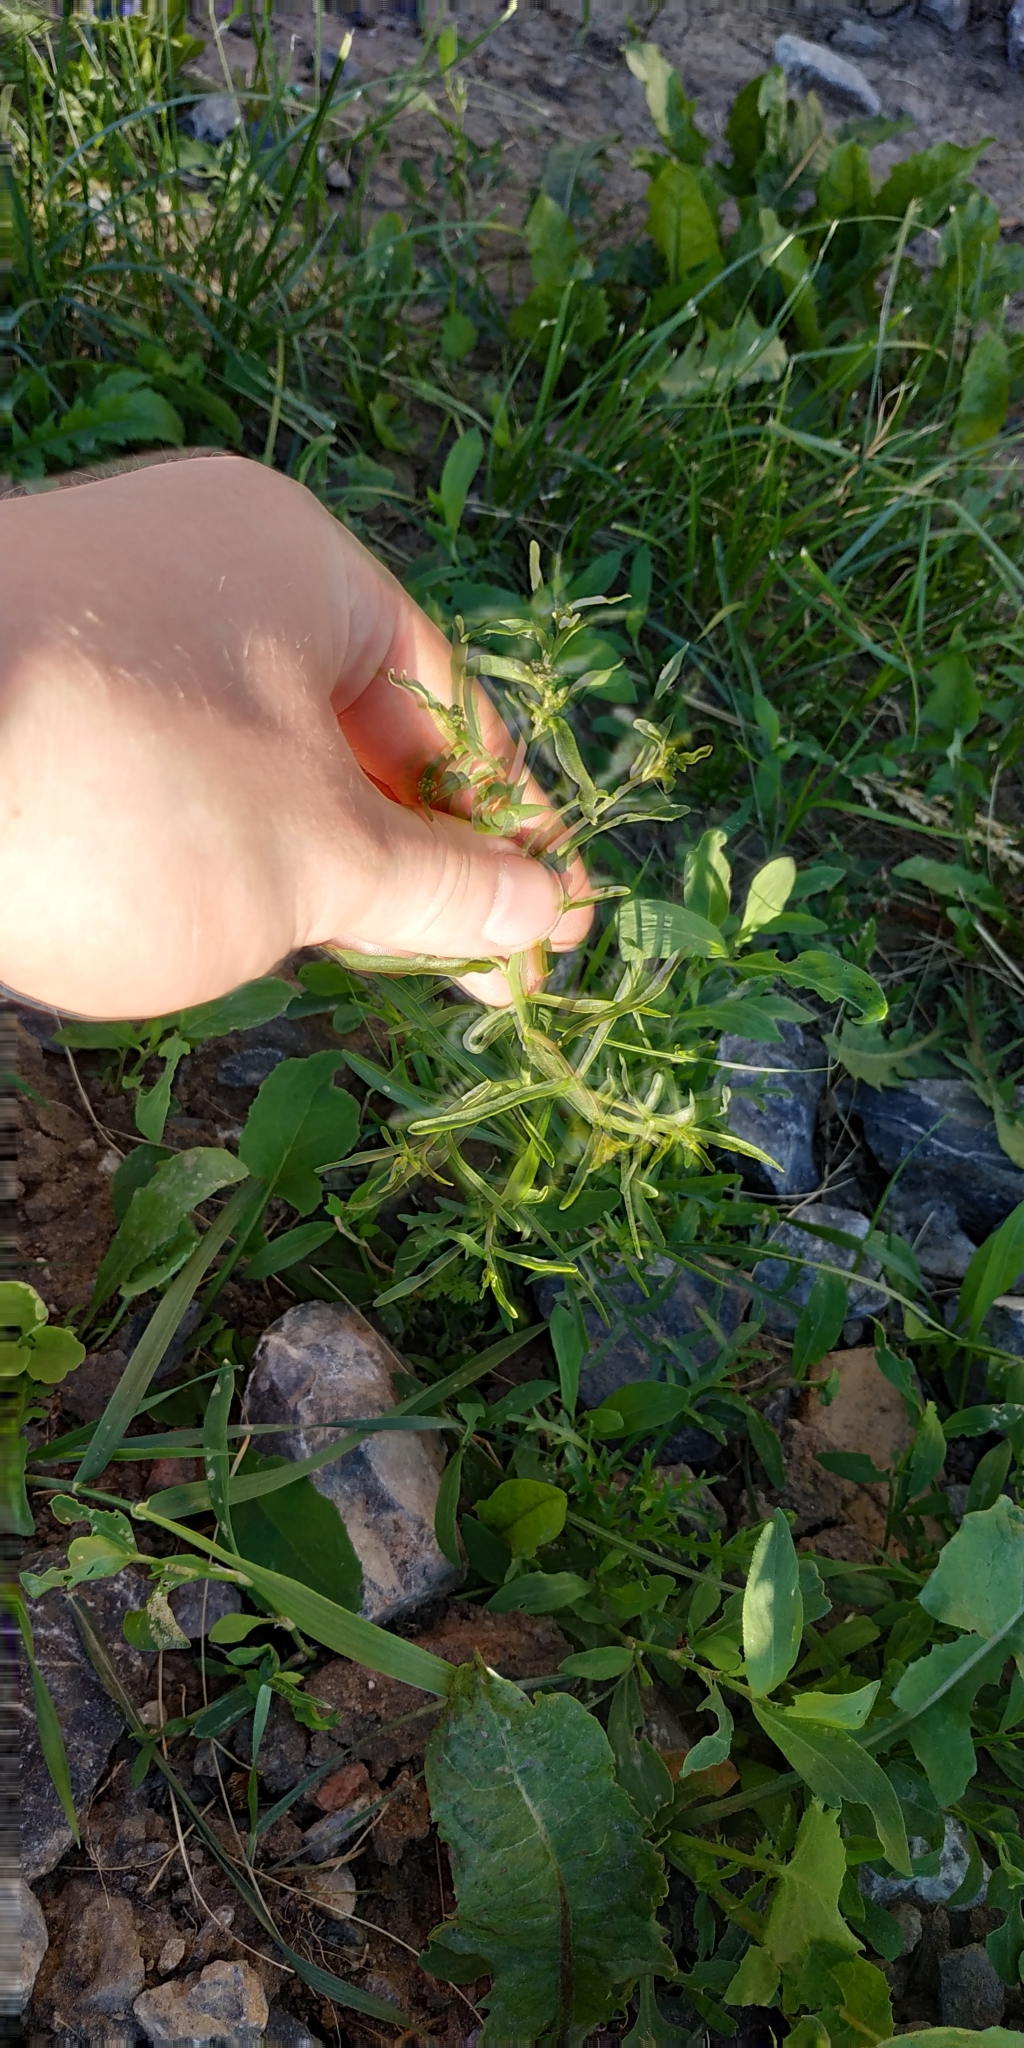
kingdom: Plantae
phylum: Tracheophyta
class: Magnoliopsida
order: Brassicales
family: Brassicaceae
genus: Lepidium
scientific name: Lepidium densiflorum
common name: Miner's pepperwort
